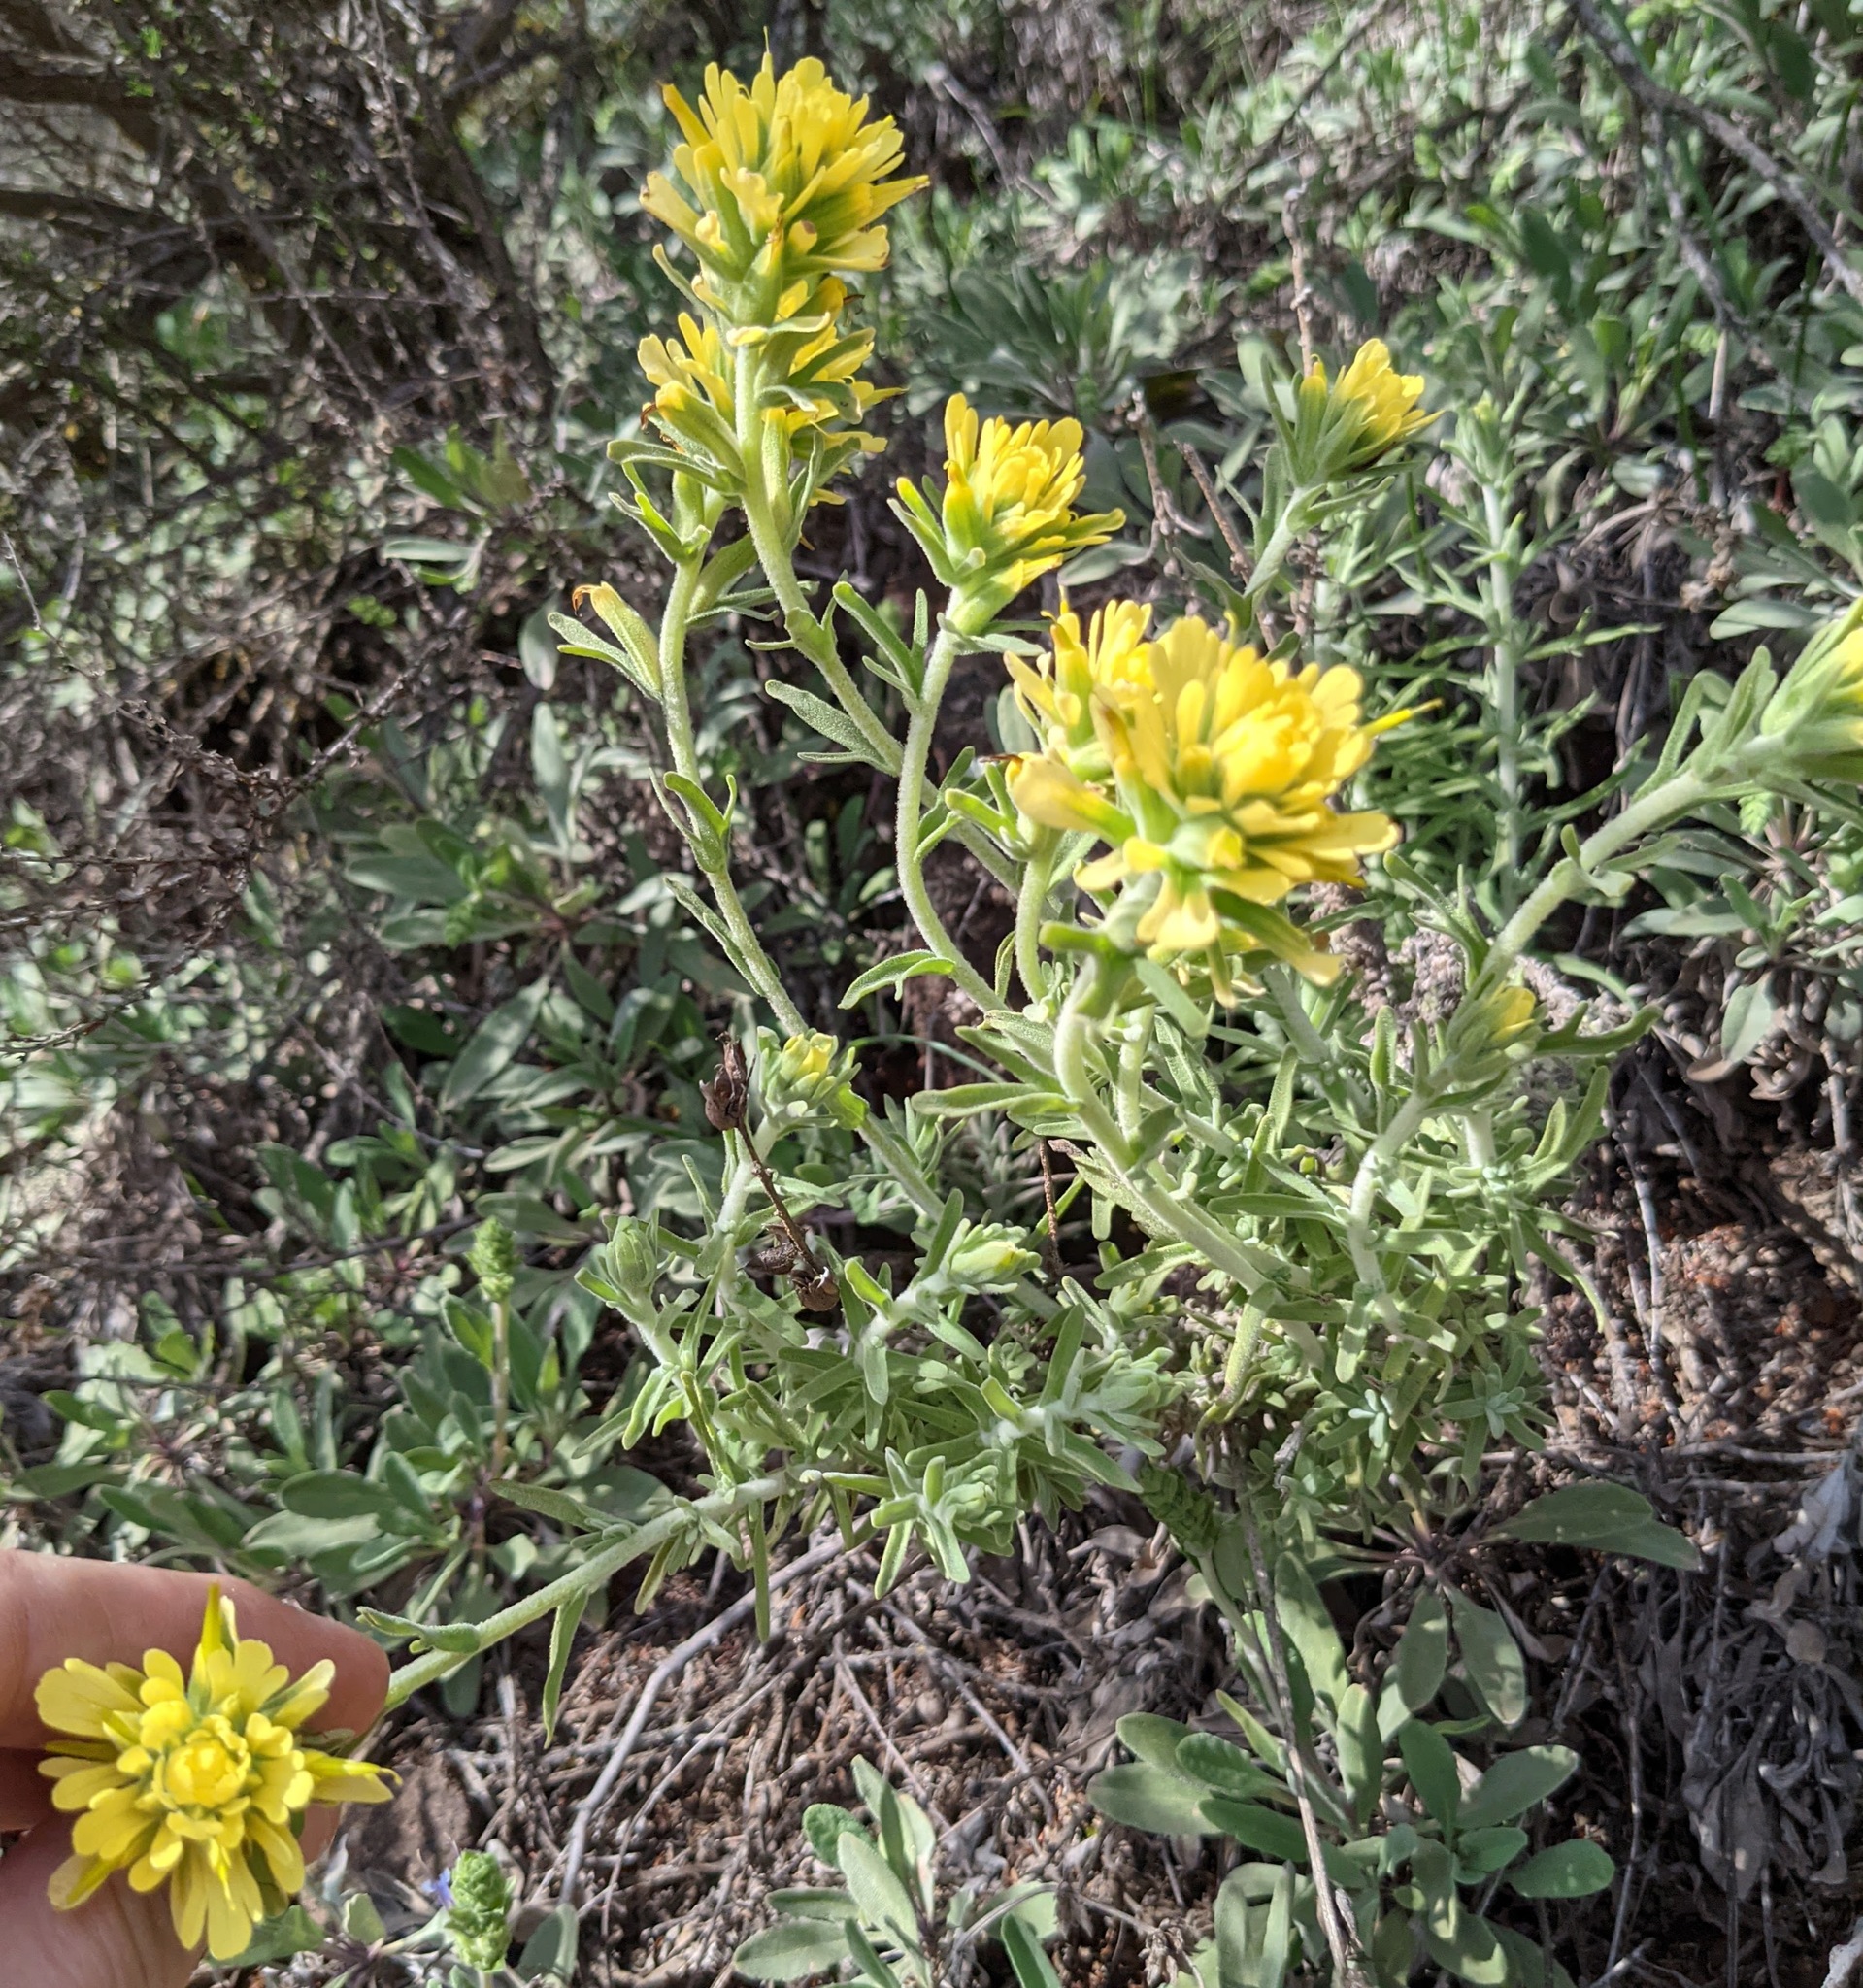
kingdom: Plantae
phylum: Tracheophyta
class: Magnoliopsida
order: Lamiales
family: Orobanchaceae
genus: Castilleja
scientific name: Castilleja foliolosa
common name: Woolly indian paintbrush
